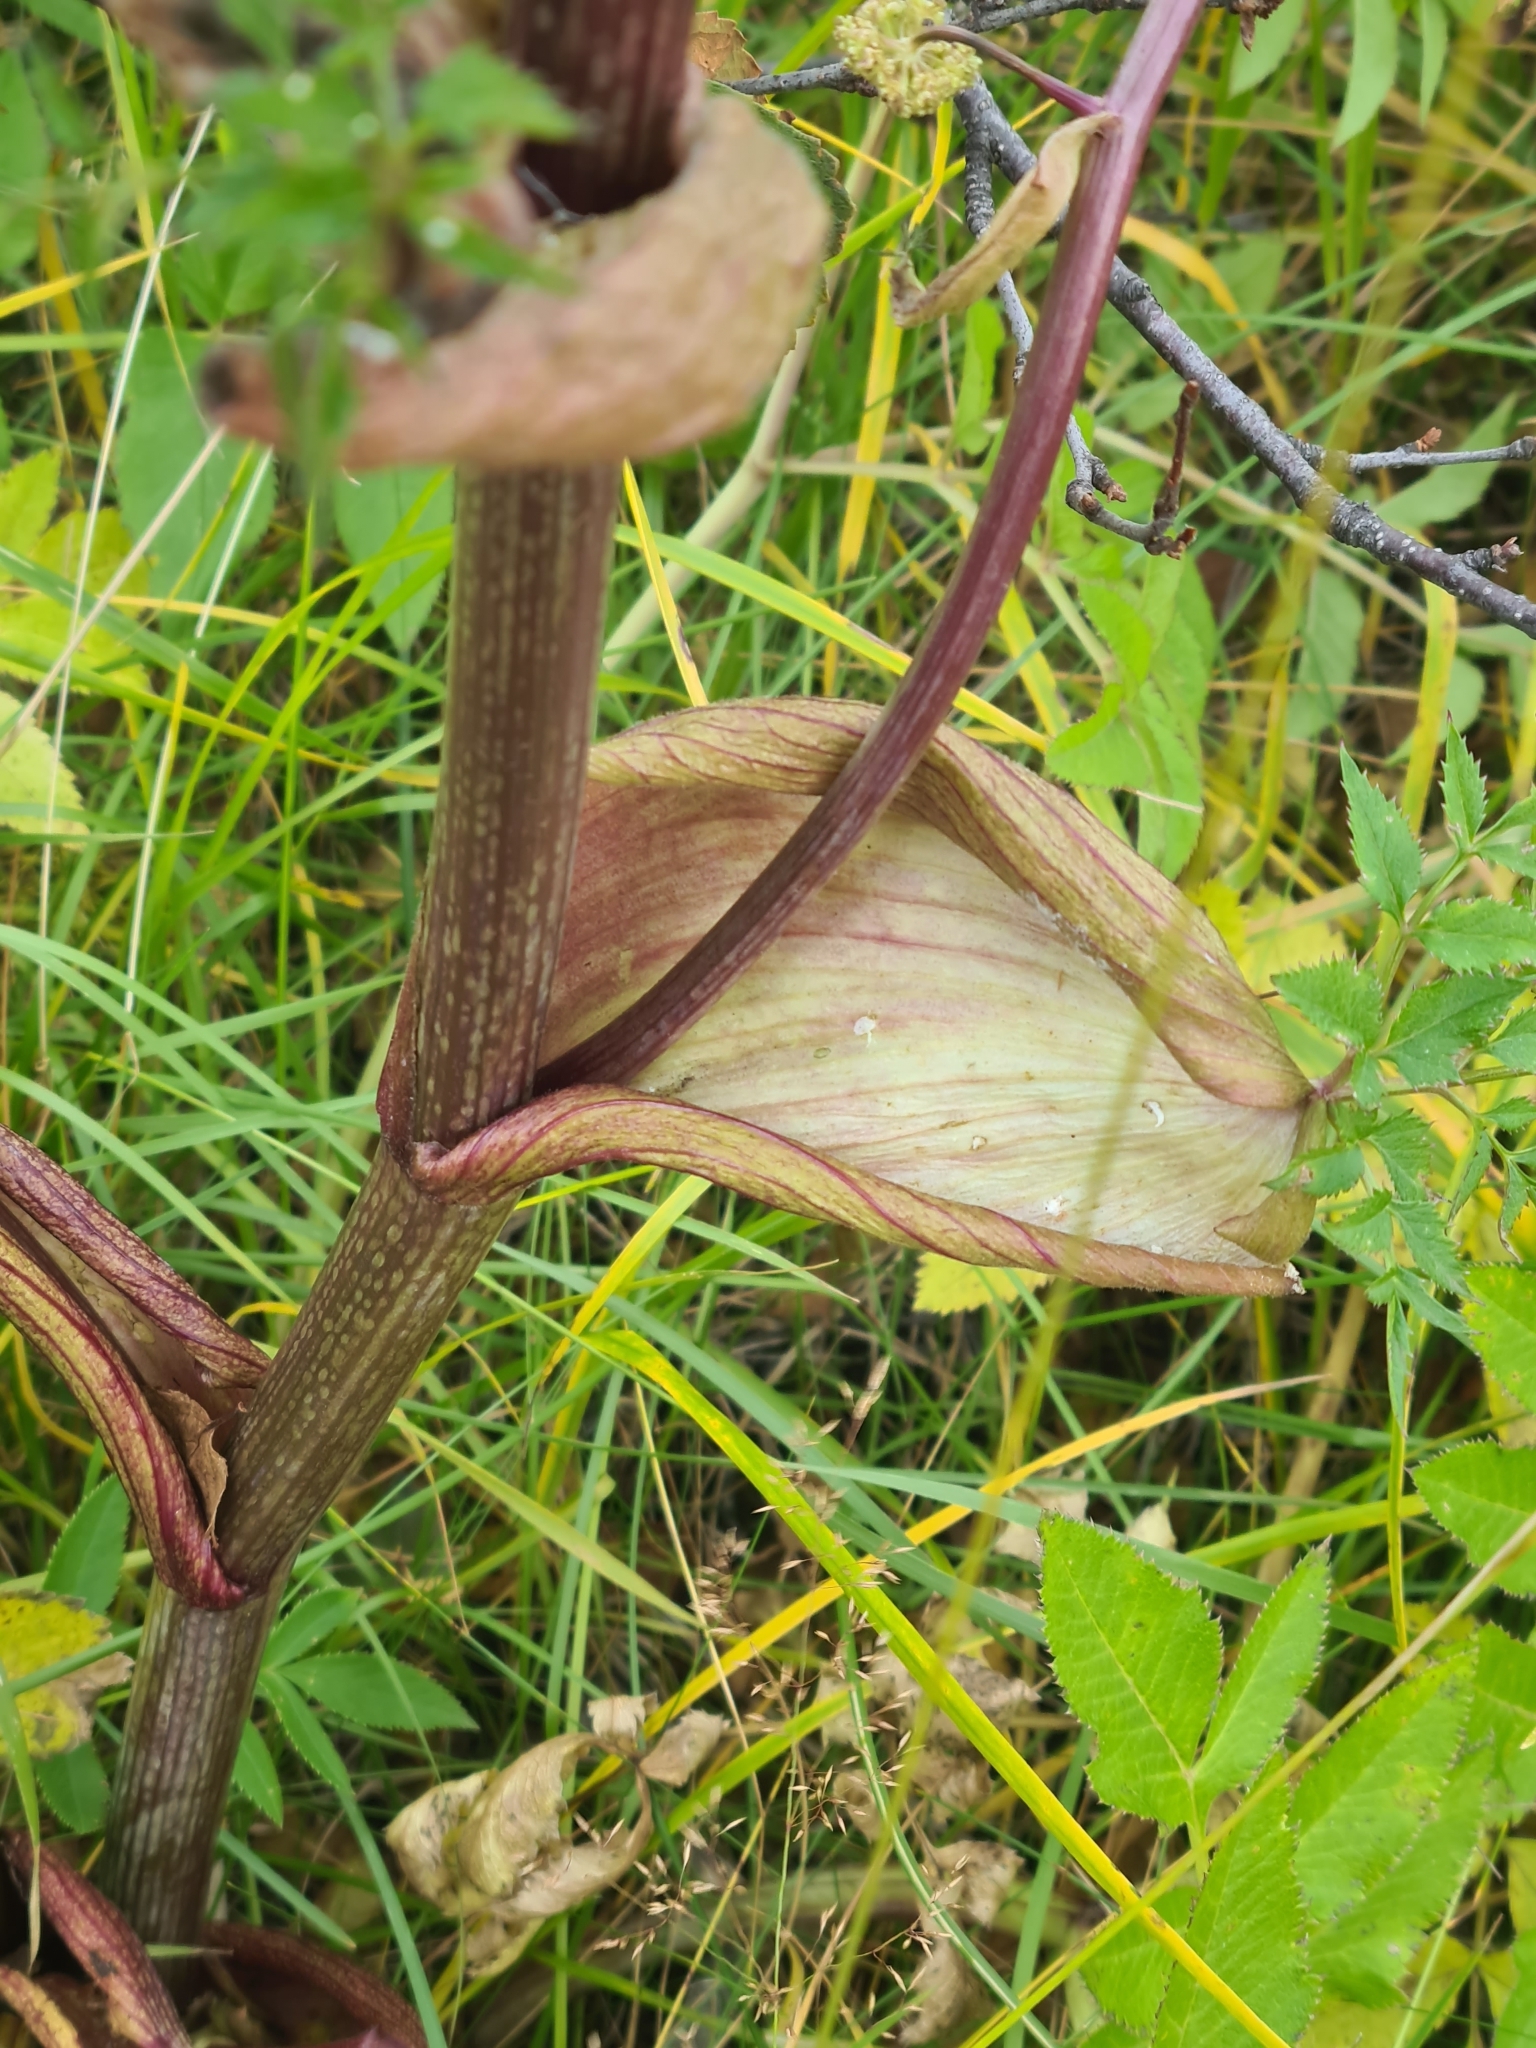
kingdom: Plantae
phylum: Tracheophyta
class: Magnoliopsida
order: Apiales
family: Apiaceae
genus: Angelica
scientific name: Angelica sylvestris
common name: Wild angelica
